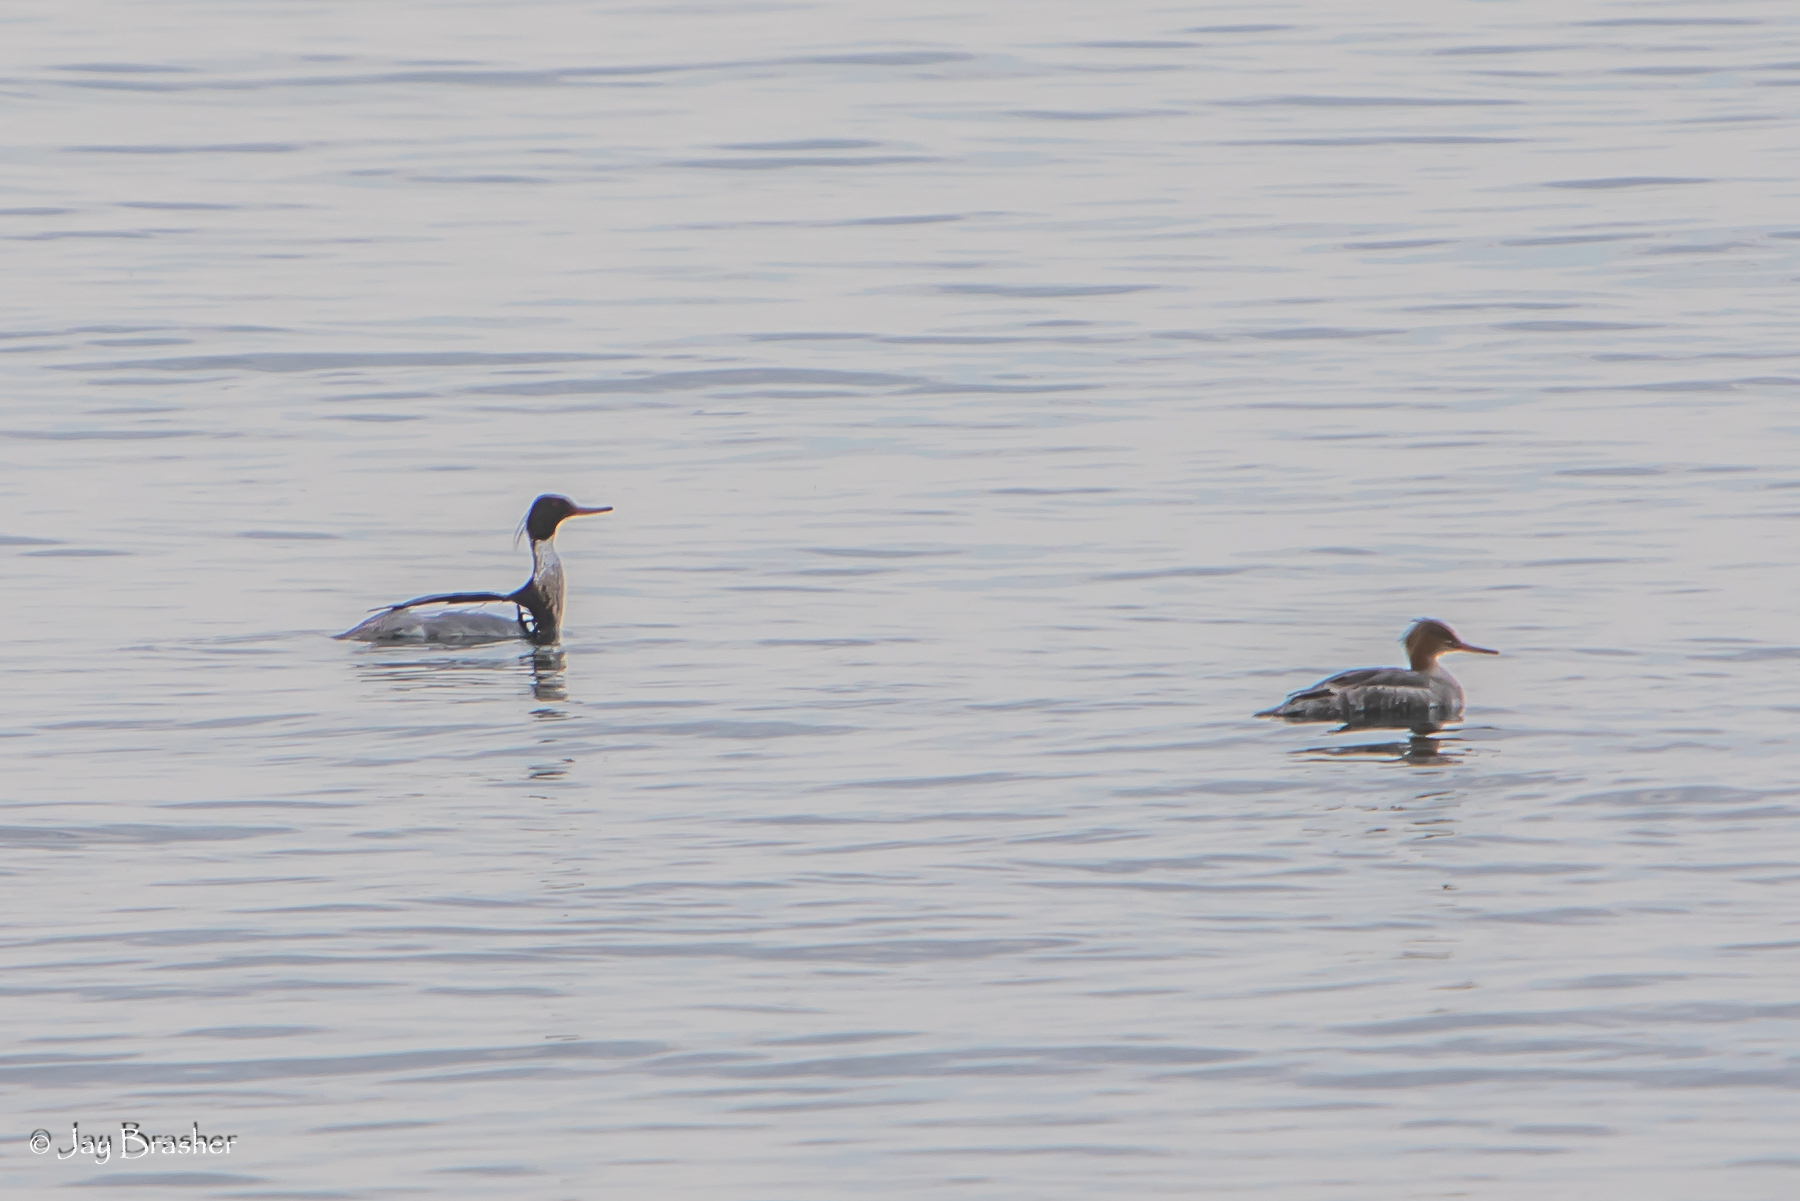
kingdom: Animalia
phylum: Chordata
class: Aves
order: Anseriformes
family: Anatidae
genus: Mergus
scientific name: Mergus serrator
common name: Red-breasted merganser
